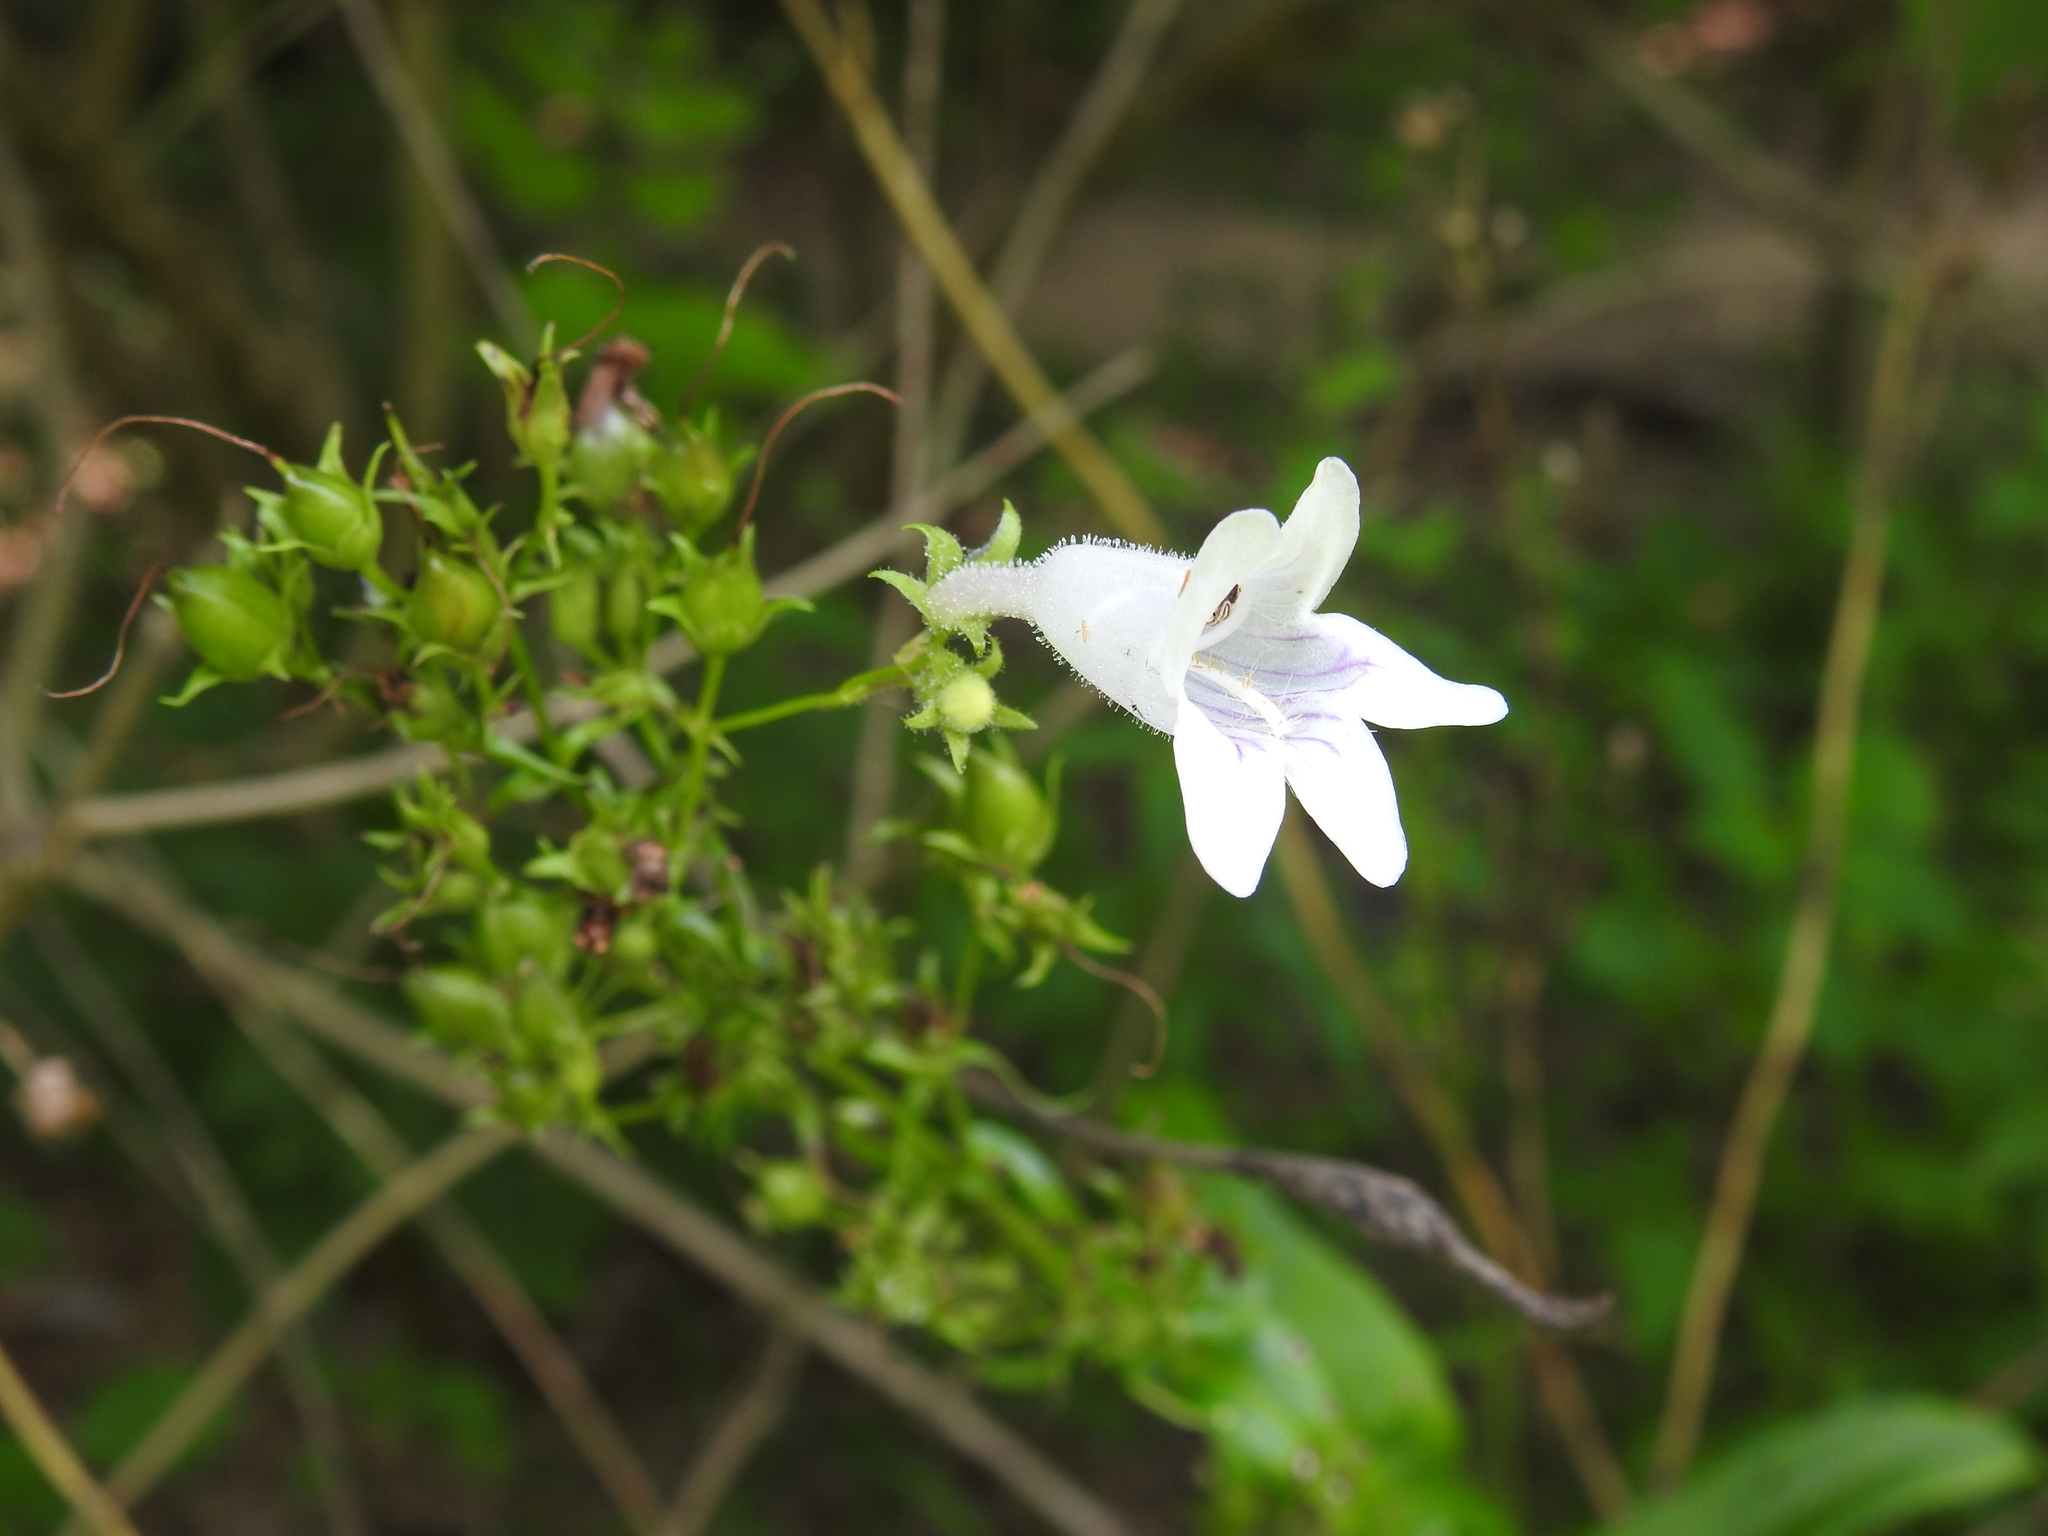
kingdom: Plantae
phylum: Tracheophyta
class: Magnoliopsida
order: Lamiales
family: Plantaginaceae
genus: Penstemon
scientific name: Penstemon digitalis
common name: Foxglove beardtongue
